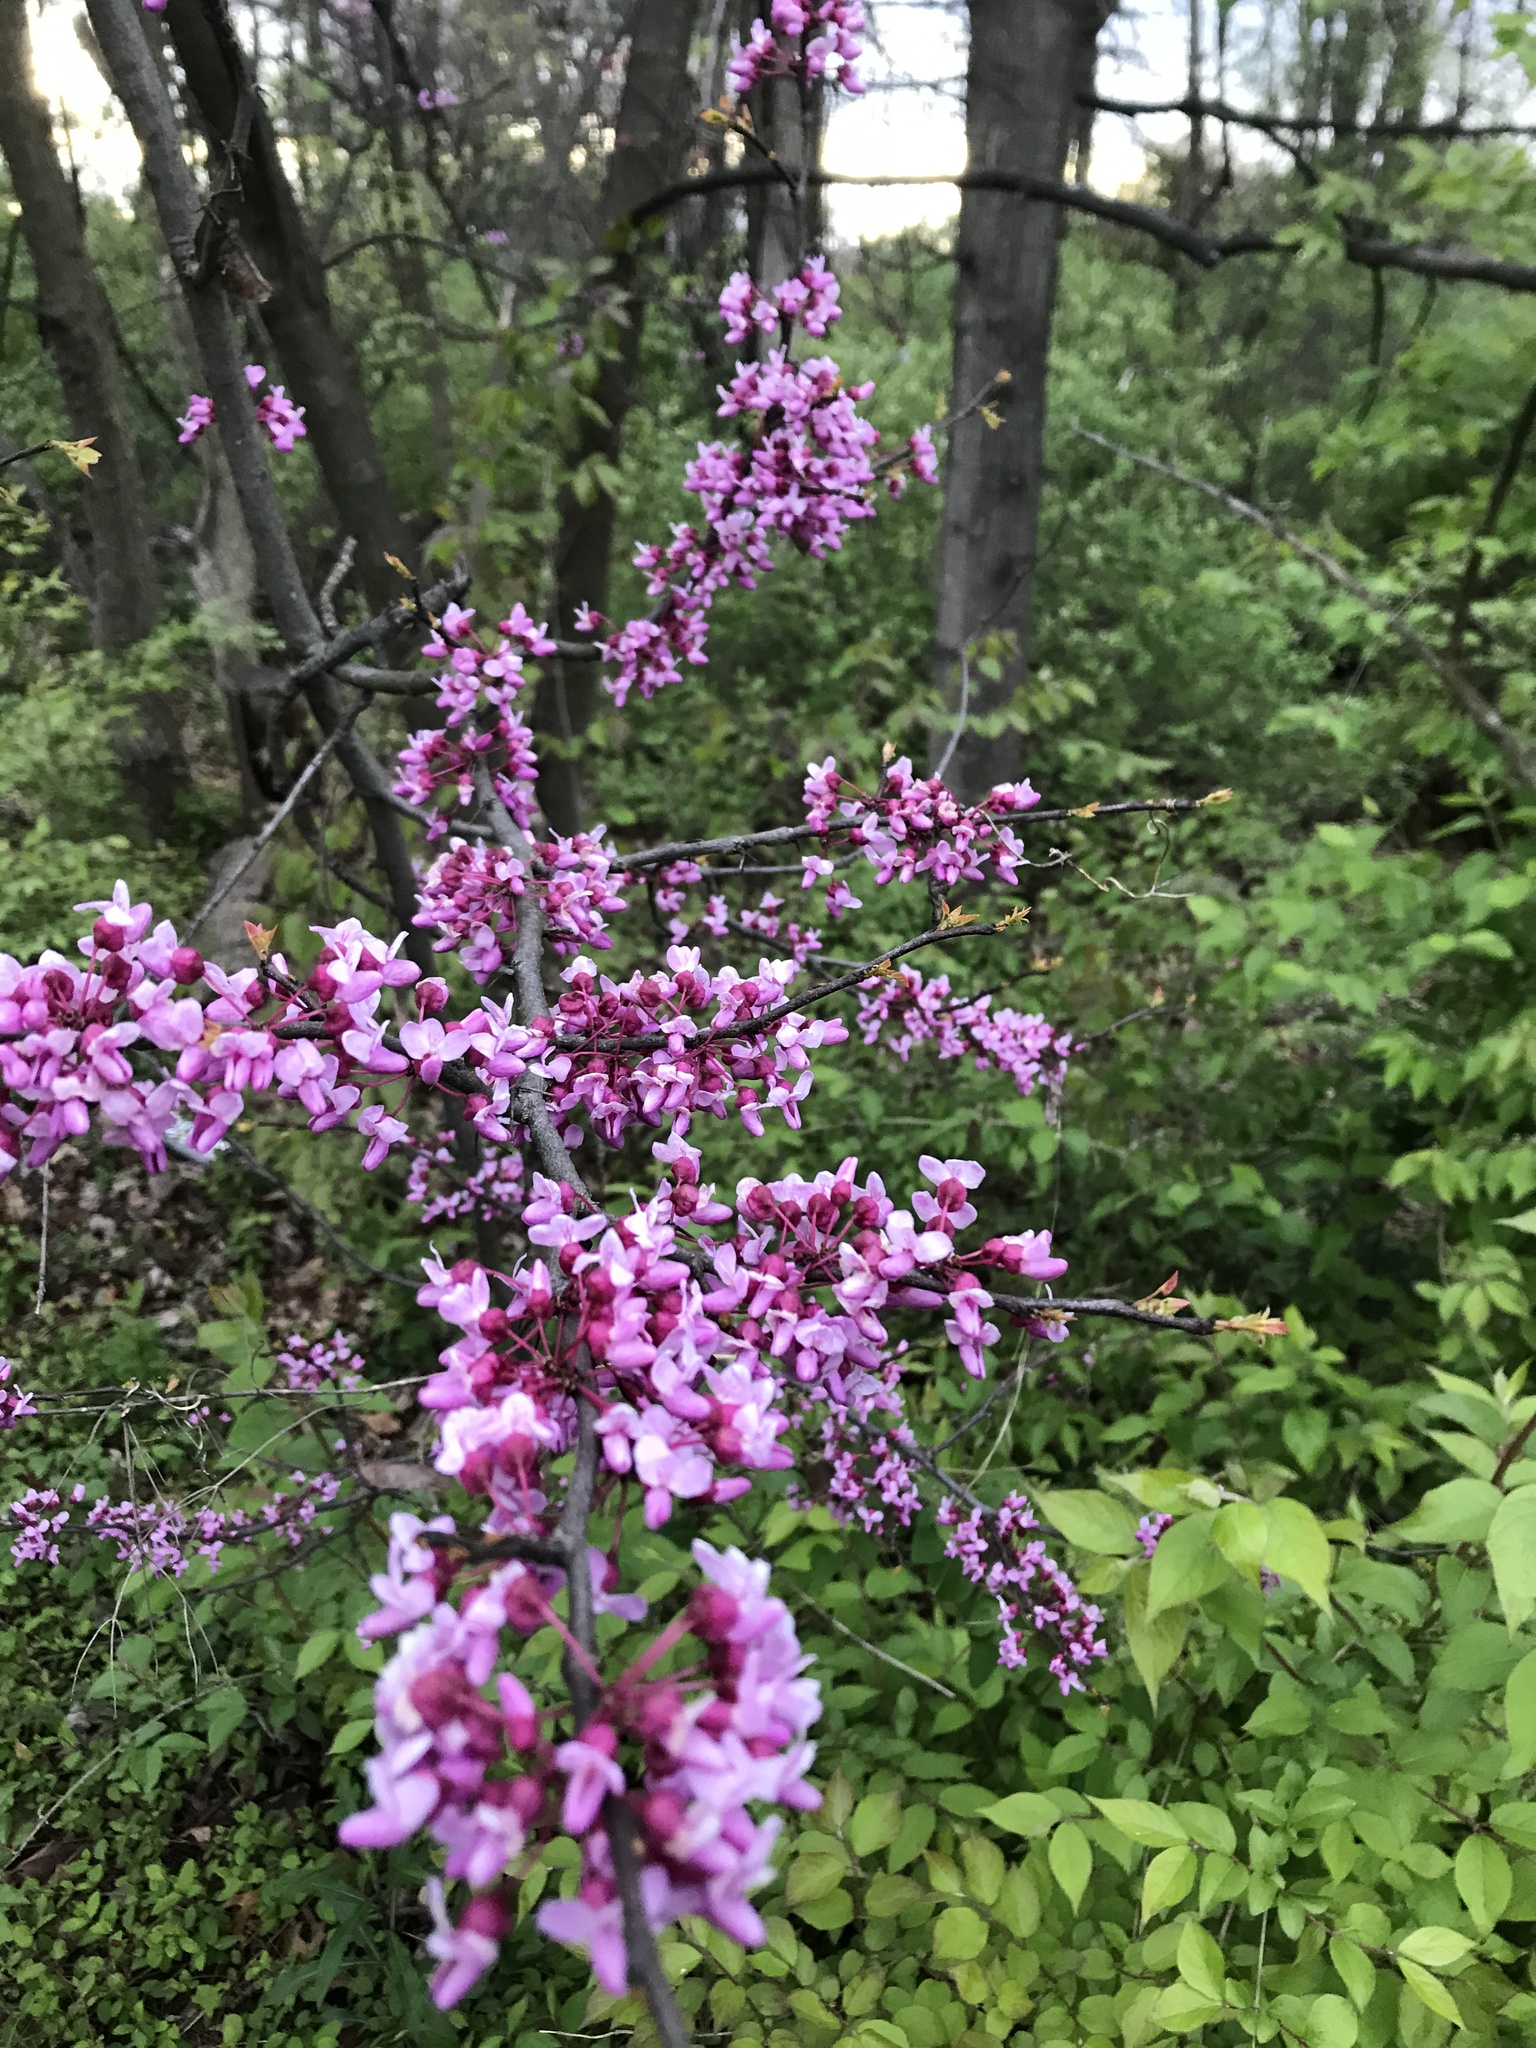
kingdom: Plantae
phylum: Tracheophyta
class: Magnoliopsida
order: Fabales
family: Fabaceae
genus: Cercis
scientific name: Cercis canadensis
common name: Eastern redbud
